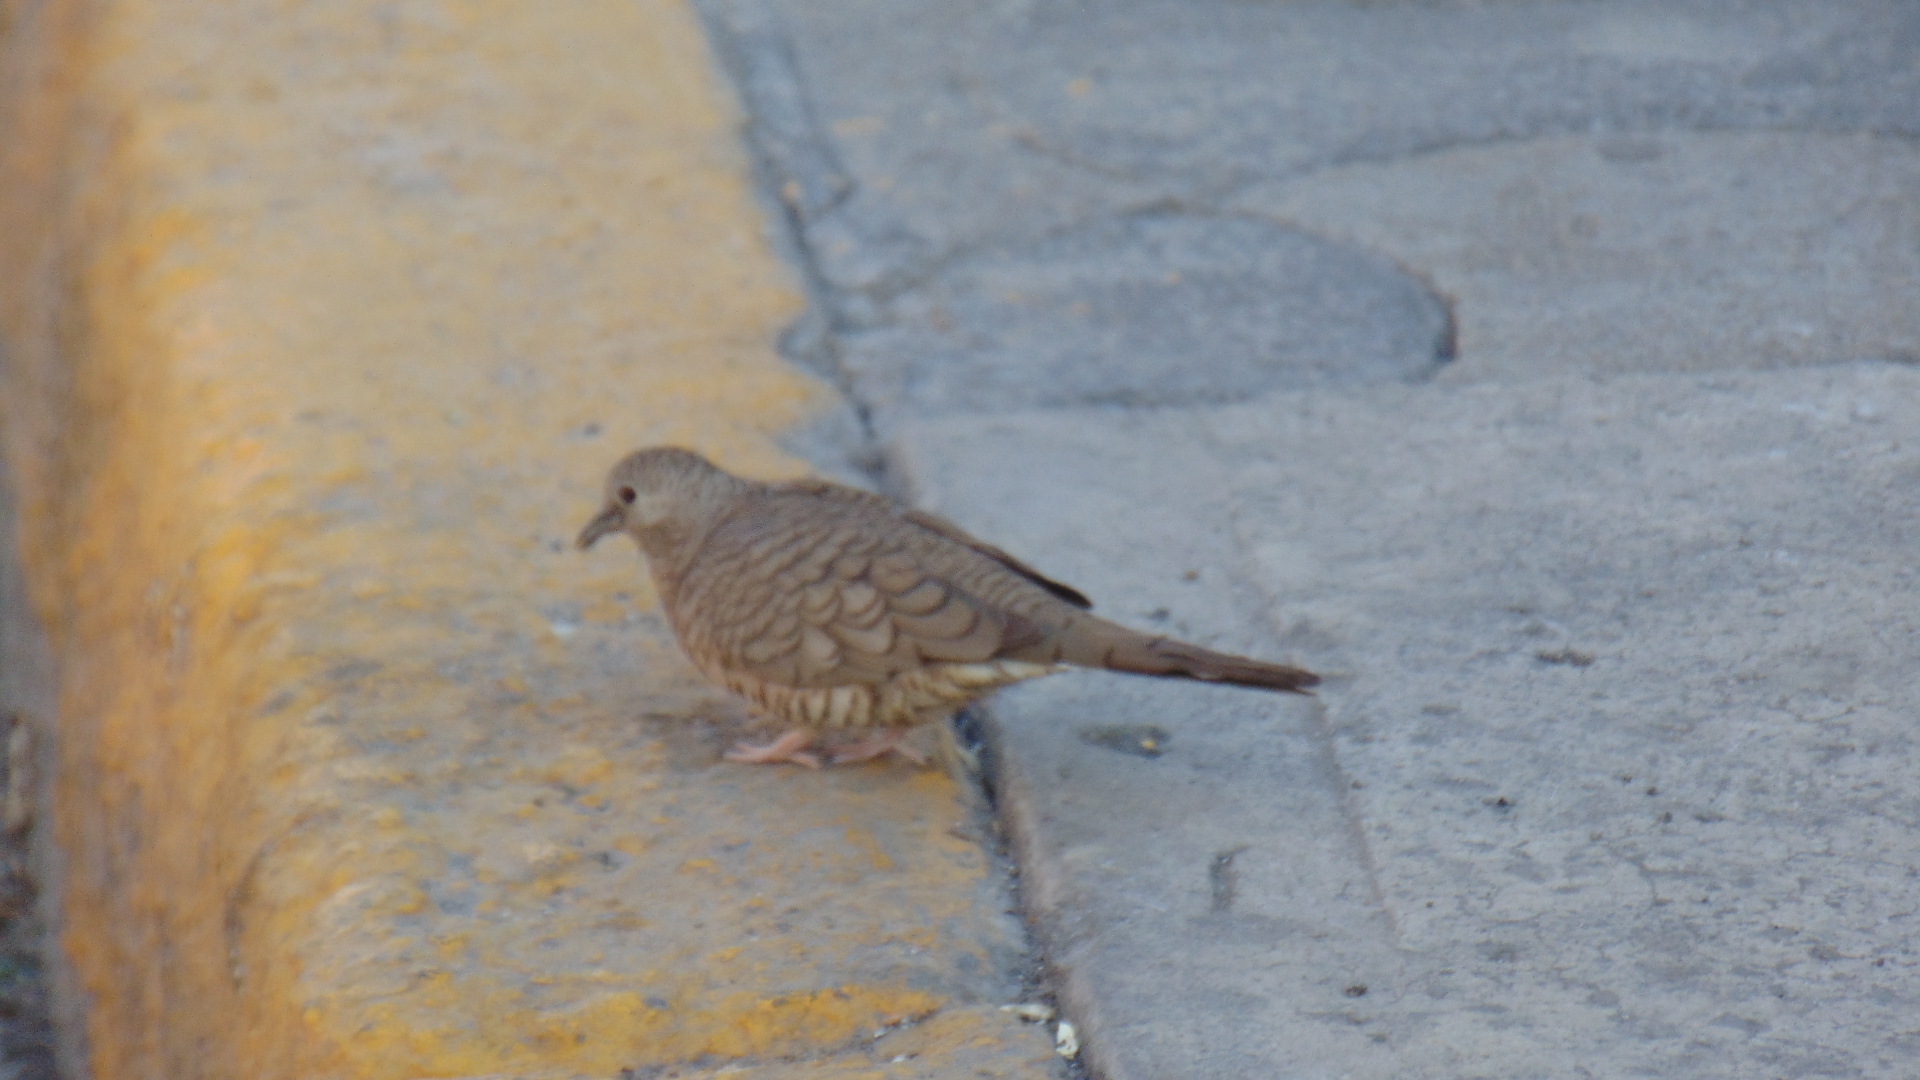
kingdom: Animalia
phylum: Chordata
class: Aves
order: Columbiformes
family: Columbidae
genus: Columbina
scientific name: Columbina inca
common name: Inca dove
